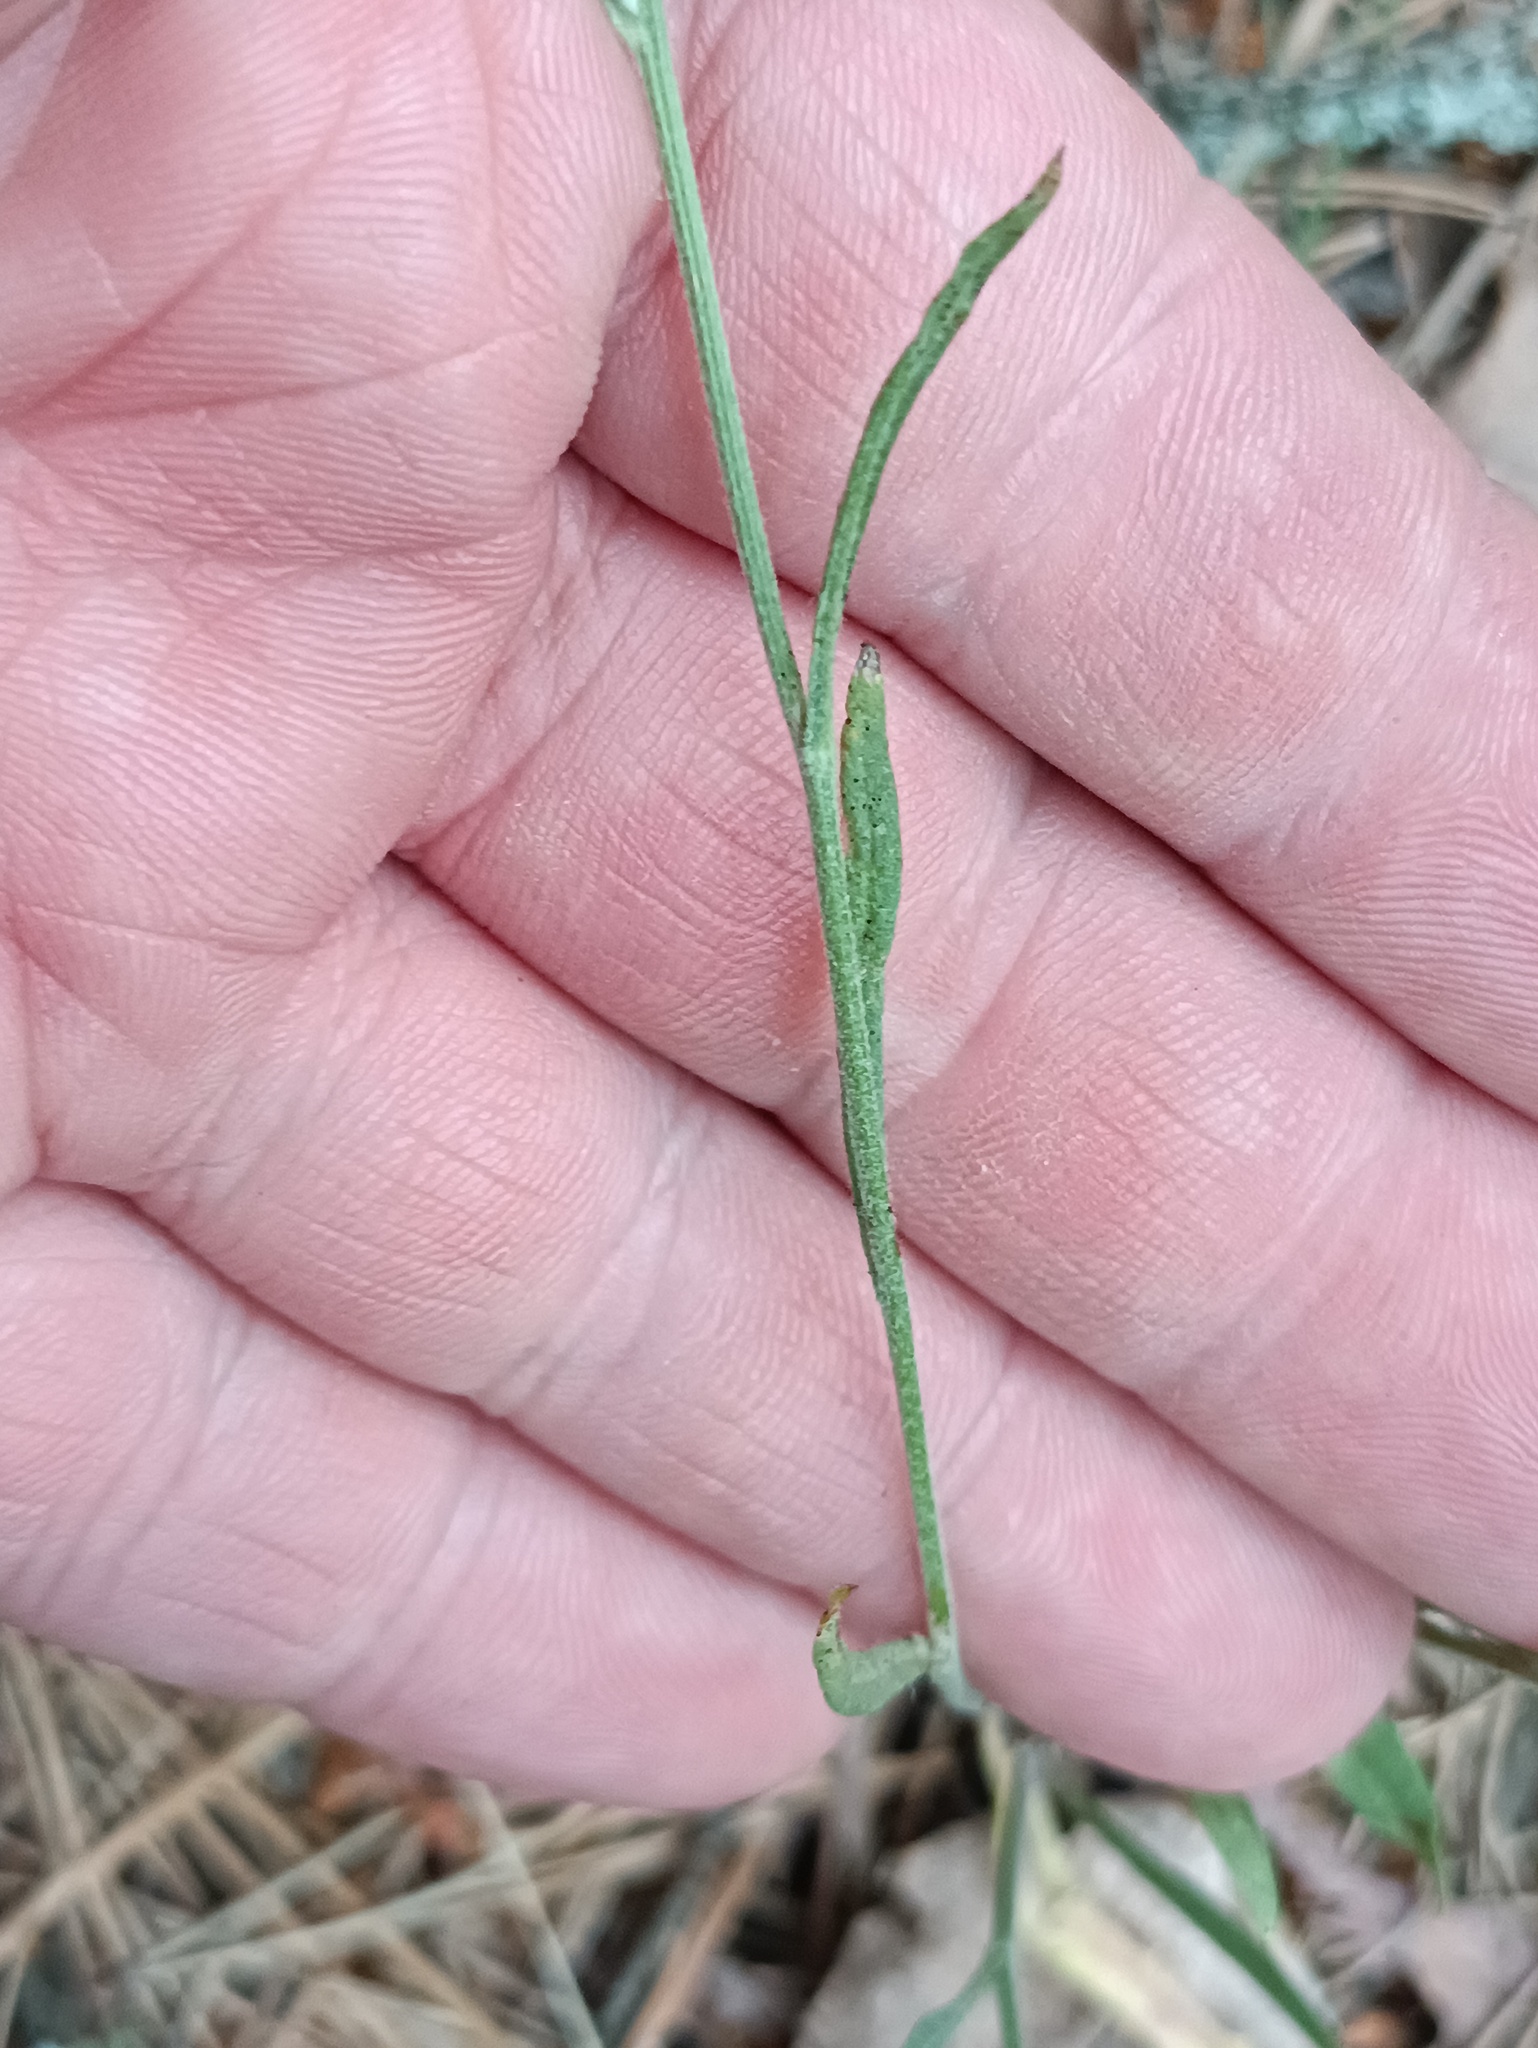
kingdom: Plantae
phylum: Tracheophyta
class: Magnoliopsida
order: Asterales
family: Asteraceae
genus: Crepis
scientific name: Crepis tectorum
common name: Narrow-leaved hawk's-beard
